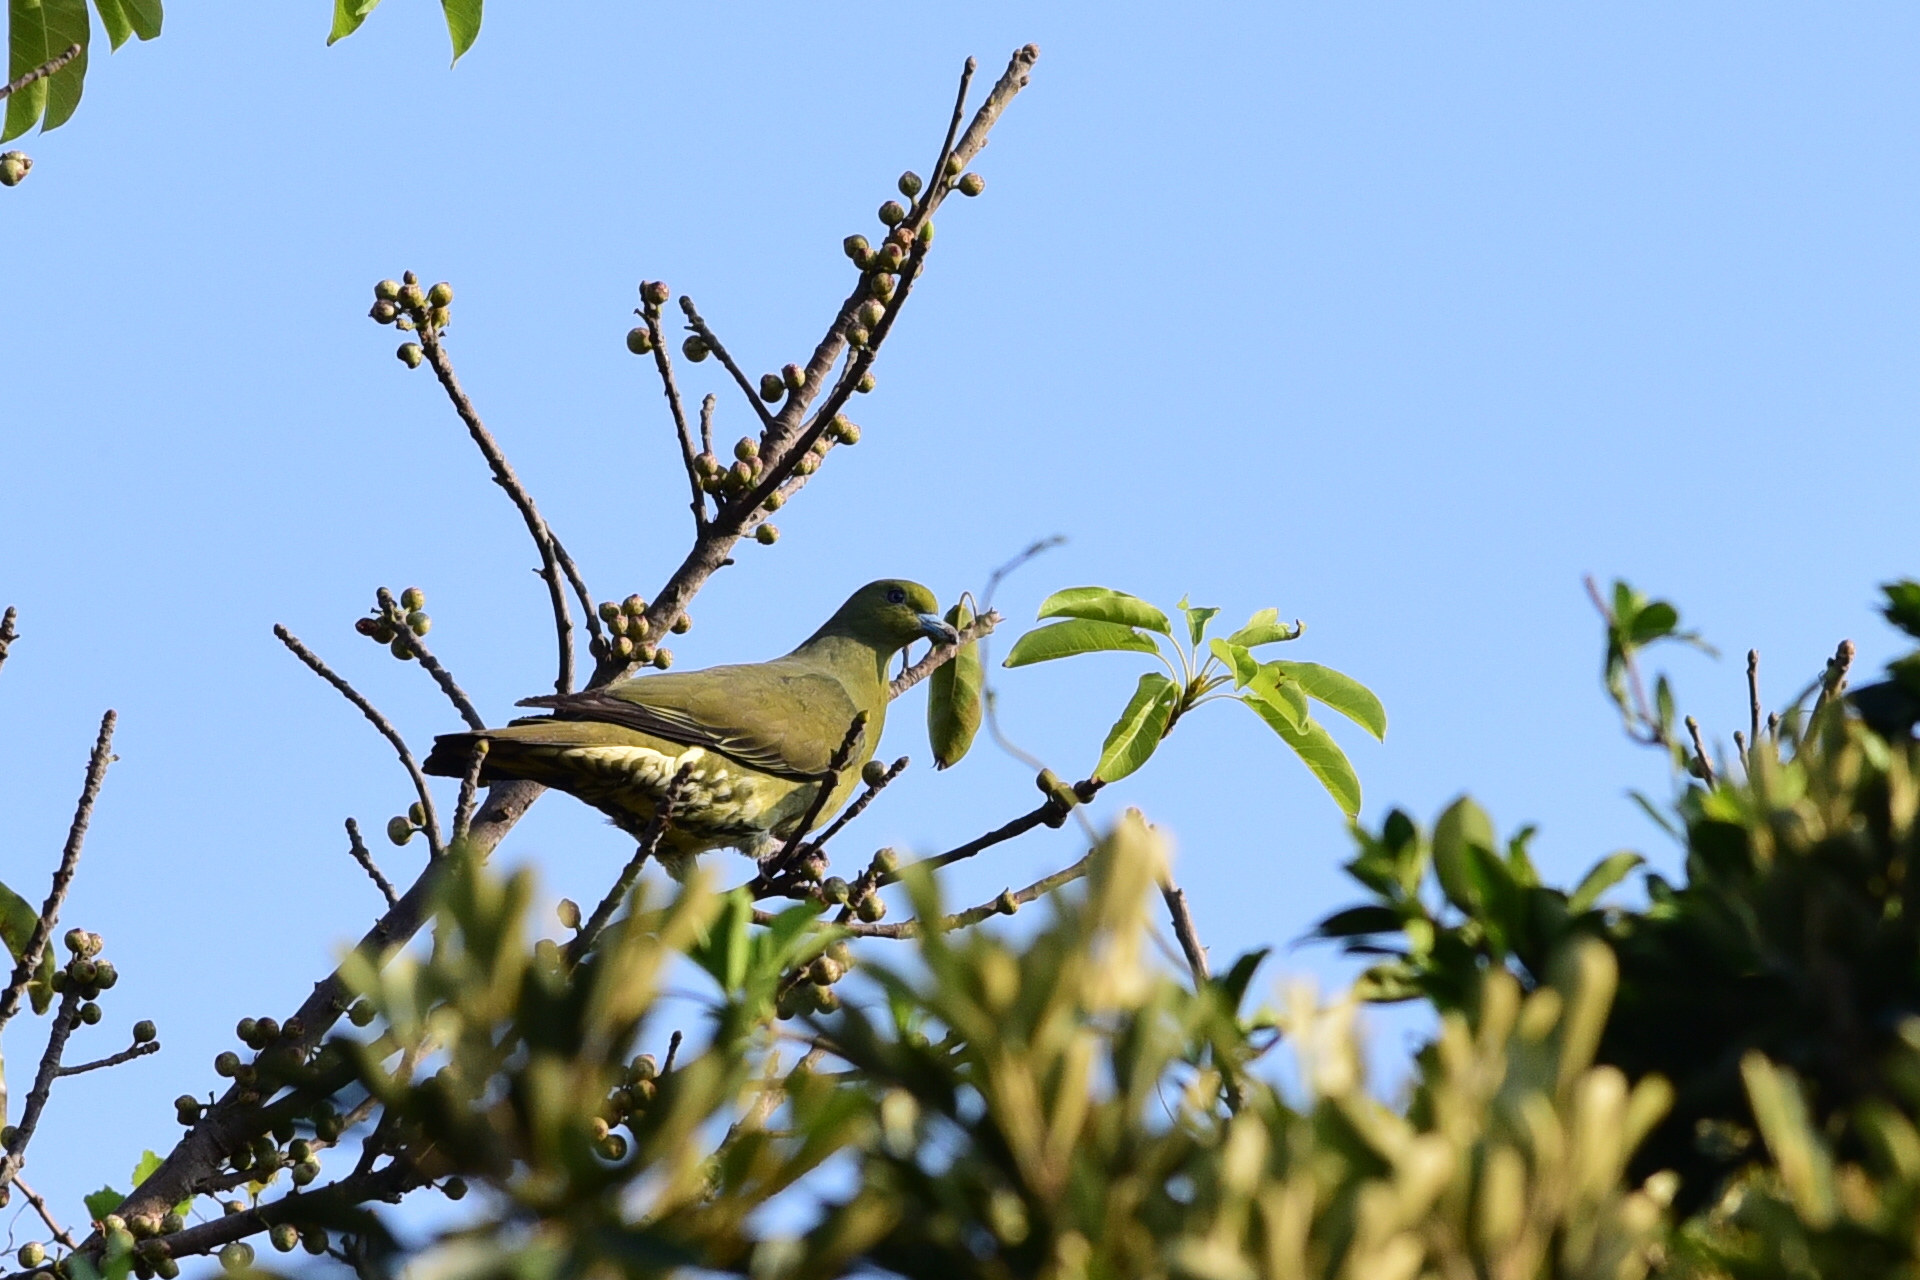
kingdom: Animalia
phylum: Chordata
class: Aves
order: Columbiformes
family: Columbidae
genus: Treron
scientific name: Treron sieboldii
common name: White-bellied green pigeon
